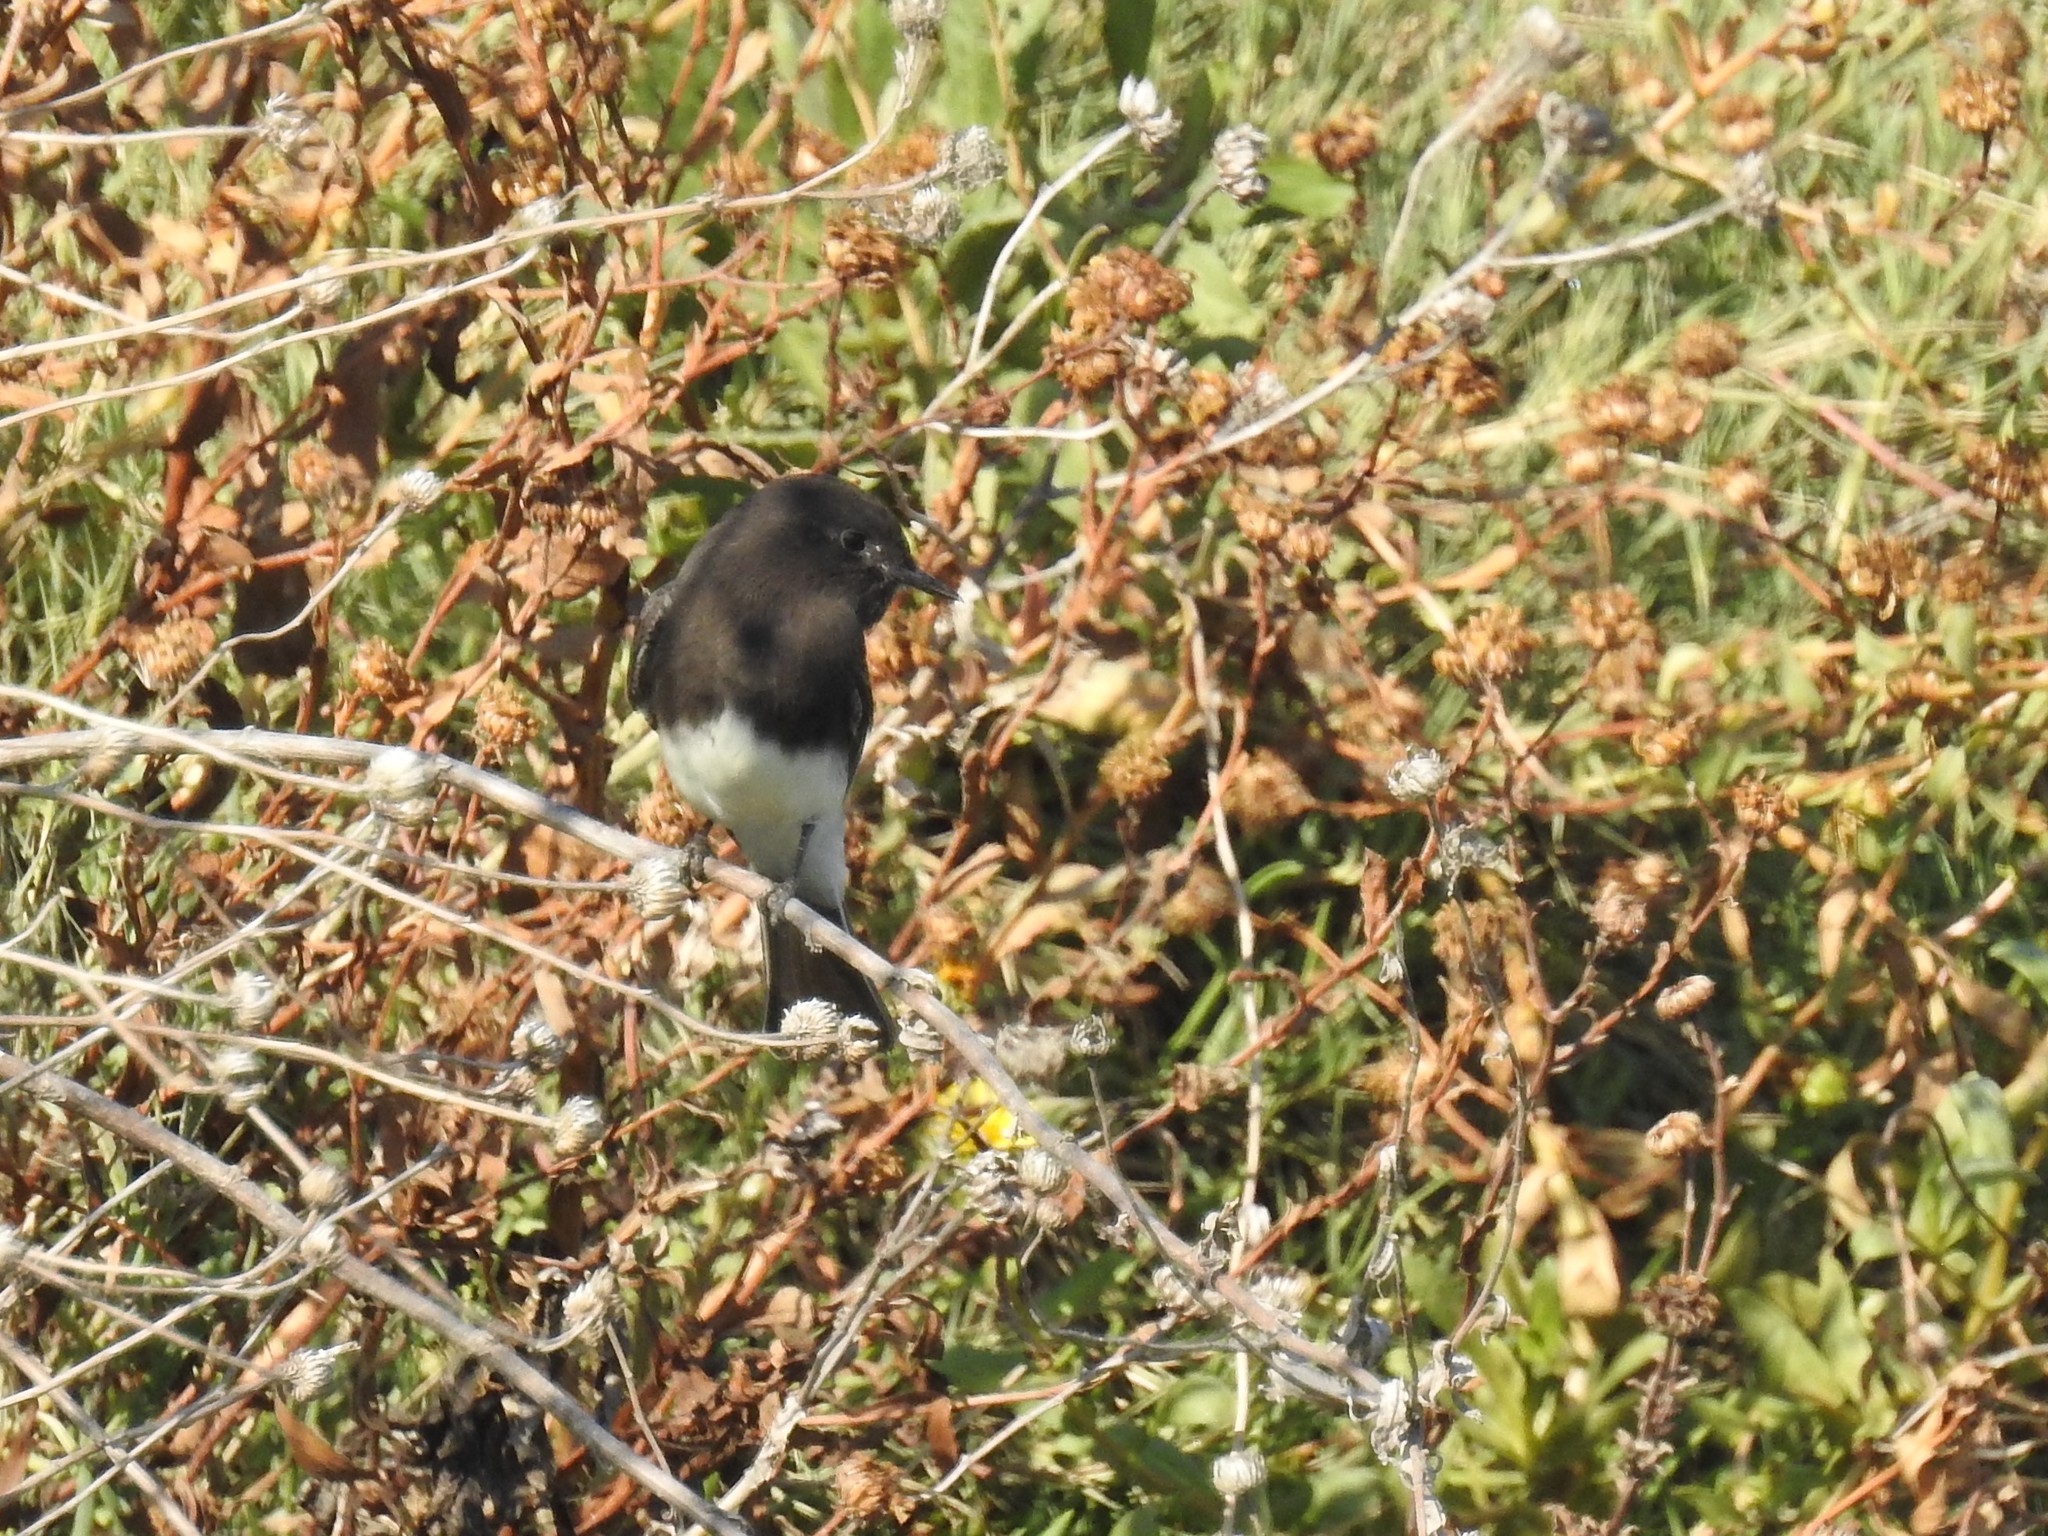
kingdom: Animalia
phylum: Chordata
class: Aves
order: Passeriformes
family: Tyrannidae
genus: Sayornis
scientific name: Sayornis nigricans
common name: Black phoebe
